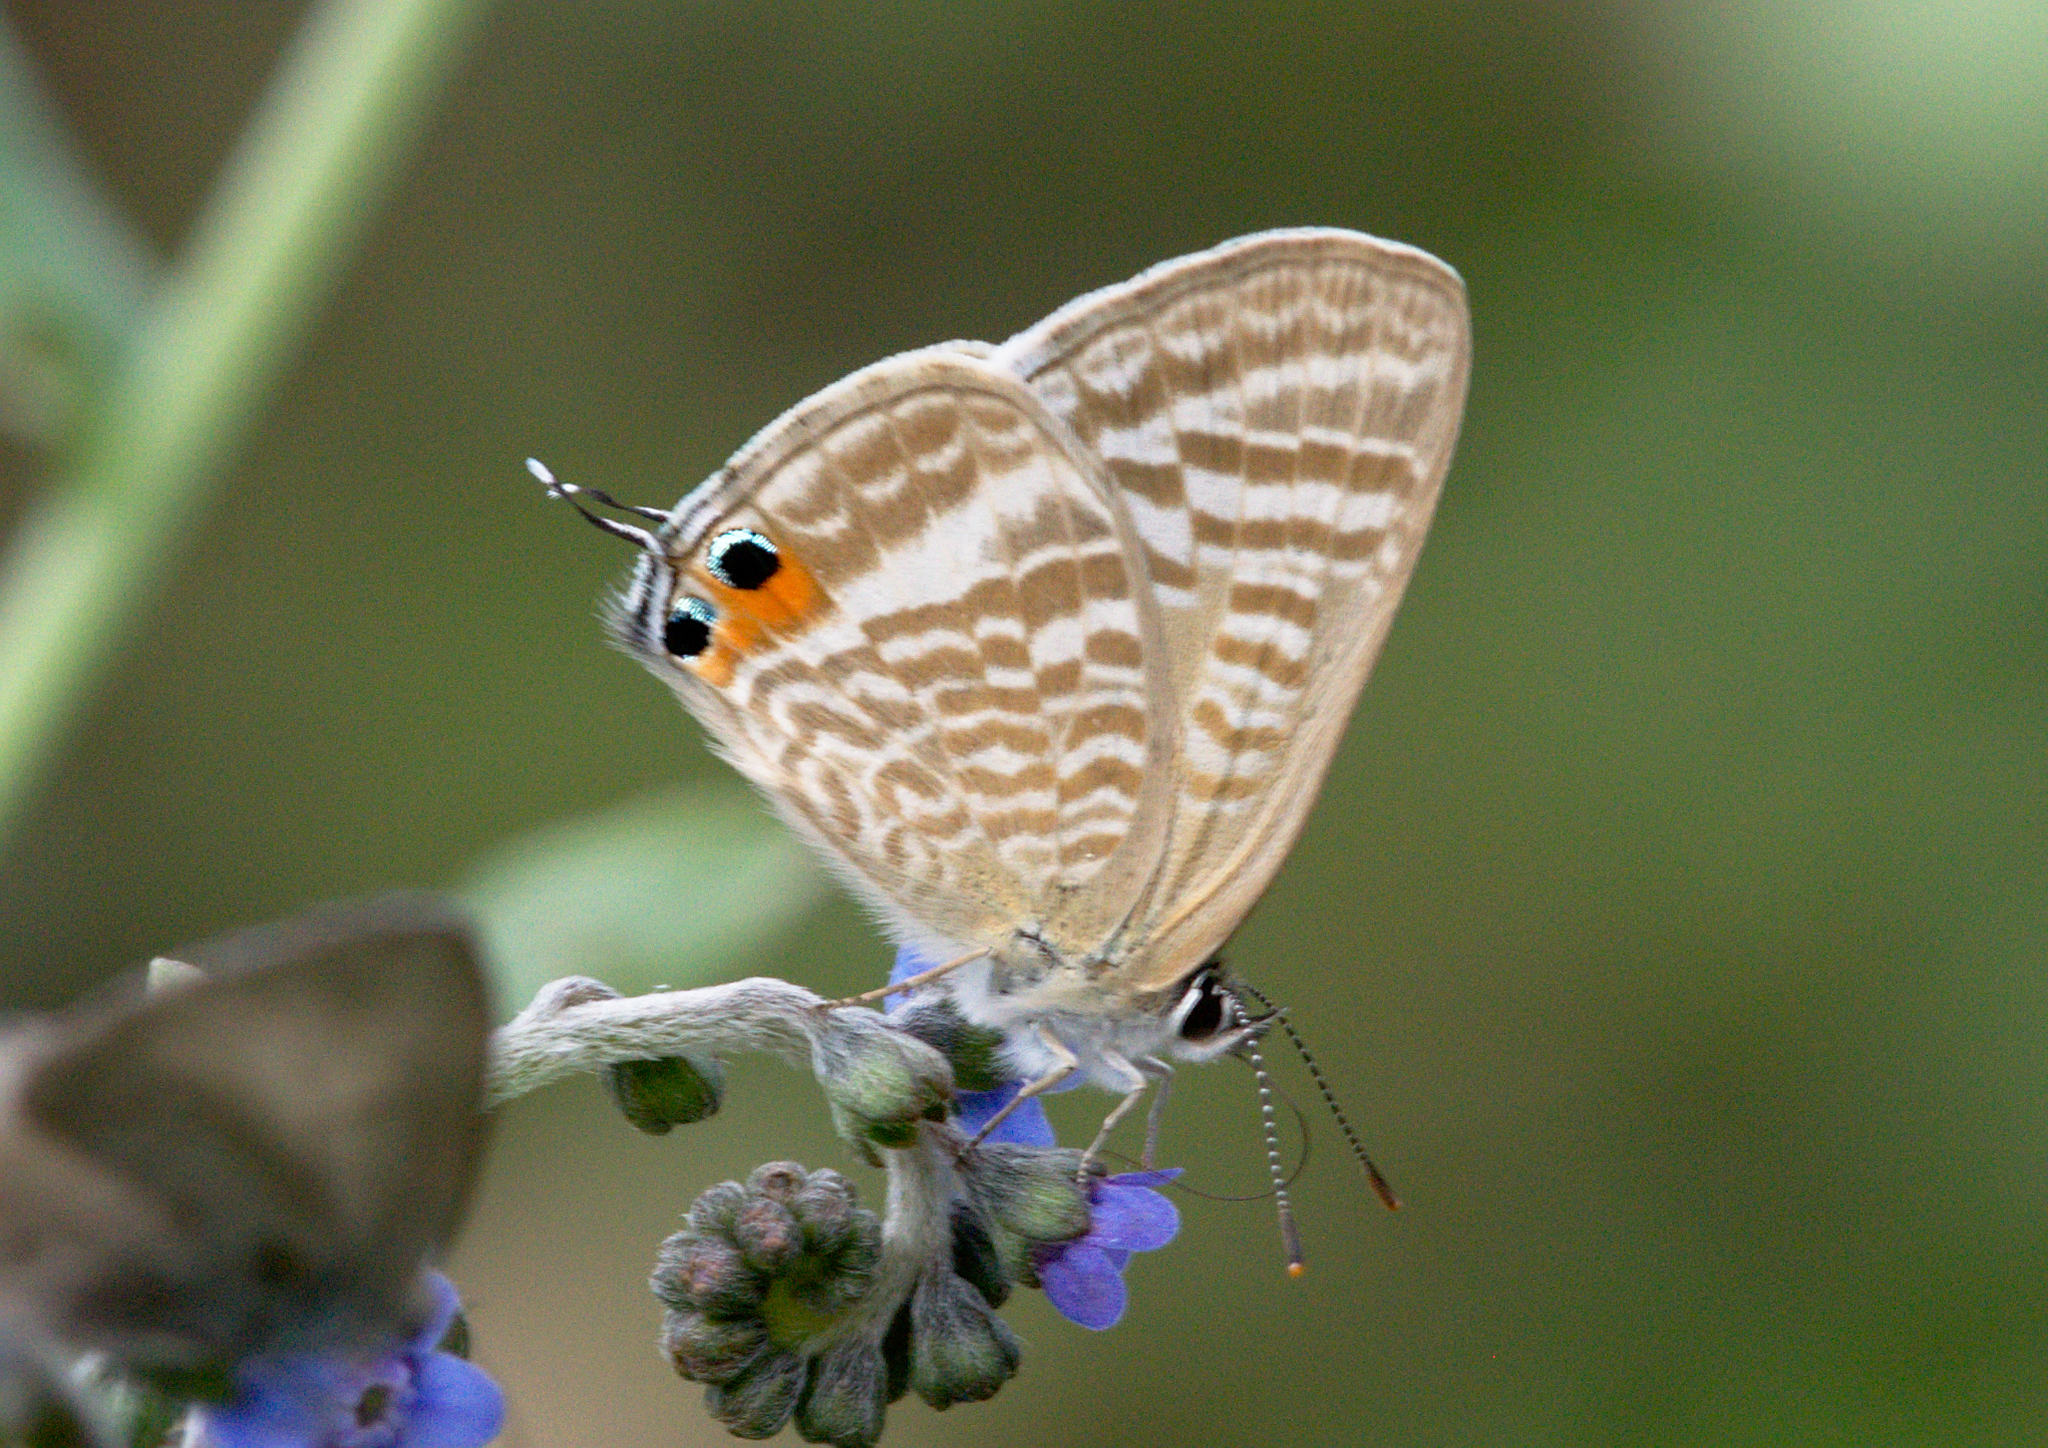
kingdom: Animalia
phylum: Arthropoda
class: Insecta
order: Lepidoptera
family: Lycaenidae
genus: Lampides
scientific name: Lampides boeticus
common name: Long-tailed blue
